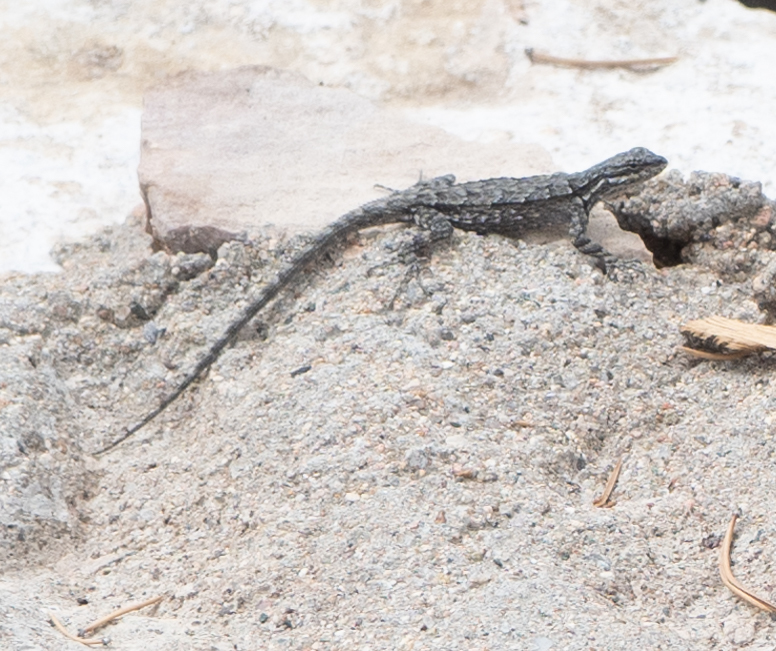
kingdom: Animalia
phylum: Chordata
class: Squamata
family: Phrynosomatidae
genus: Urosaurus
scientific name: Urosaurus ornatus
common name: Ornate tree lizard
